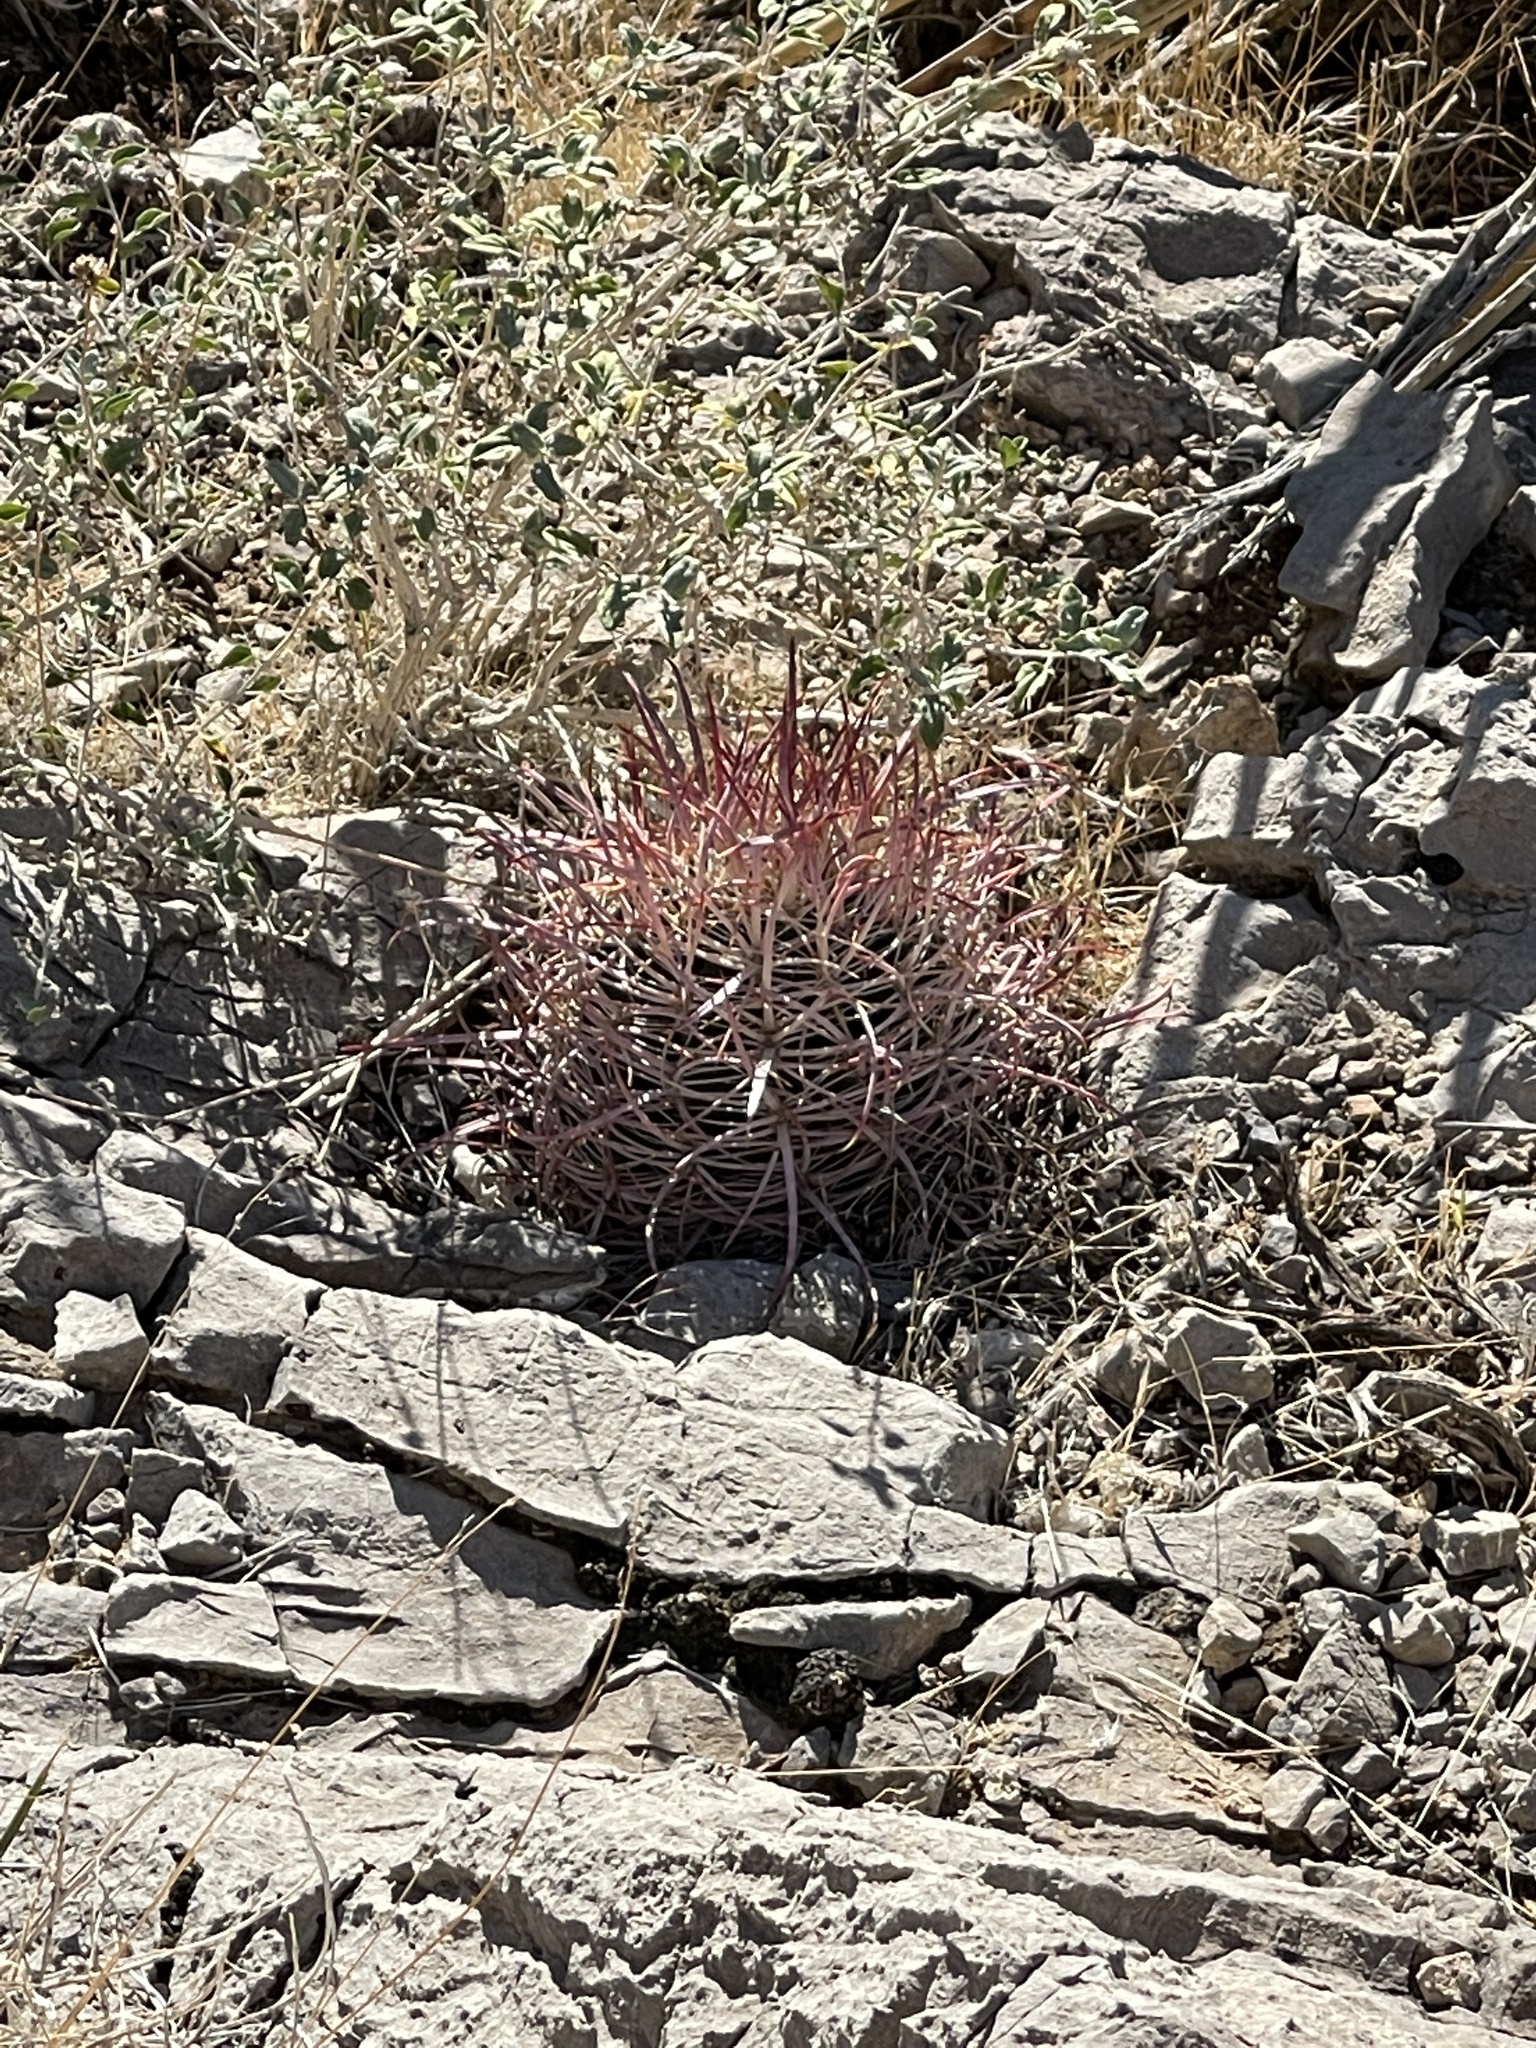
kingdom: Plantae
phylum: Tracheophyta
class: Magnoliopsida
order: Caryophyllales
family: Cactaceae
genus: Ferocactus
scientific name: Ferocactus cylindraceus
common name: California barrel cactus
